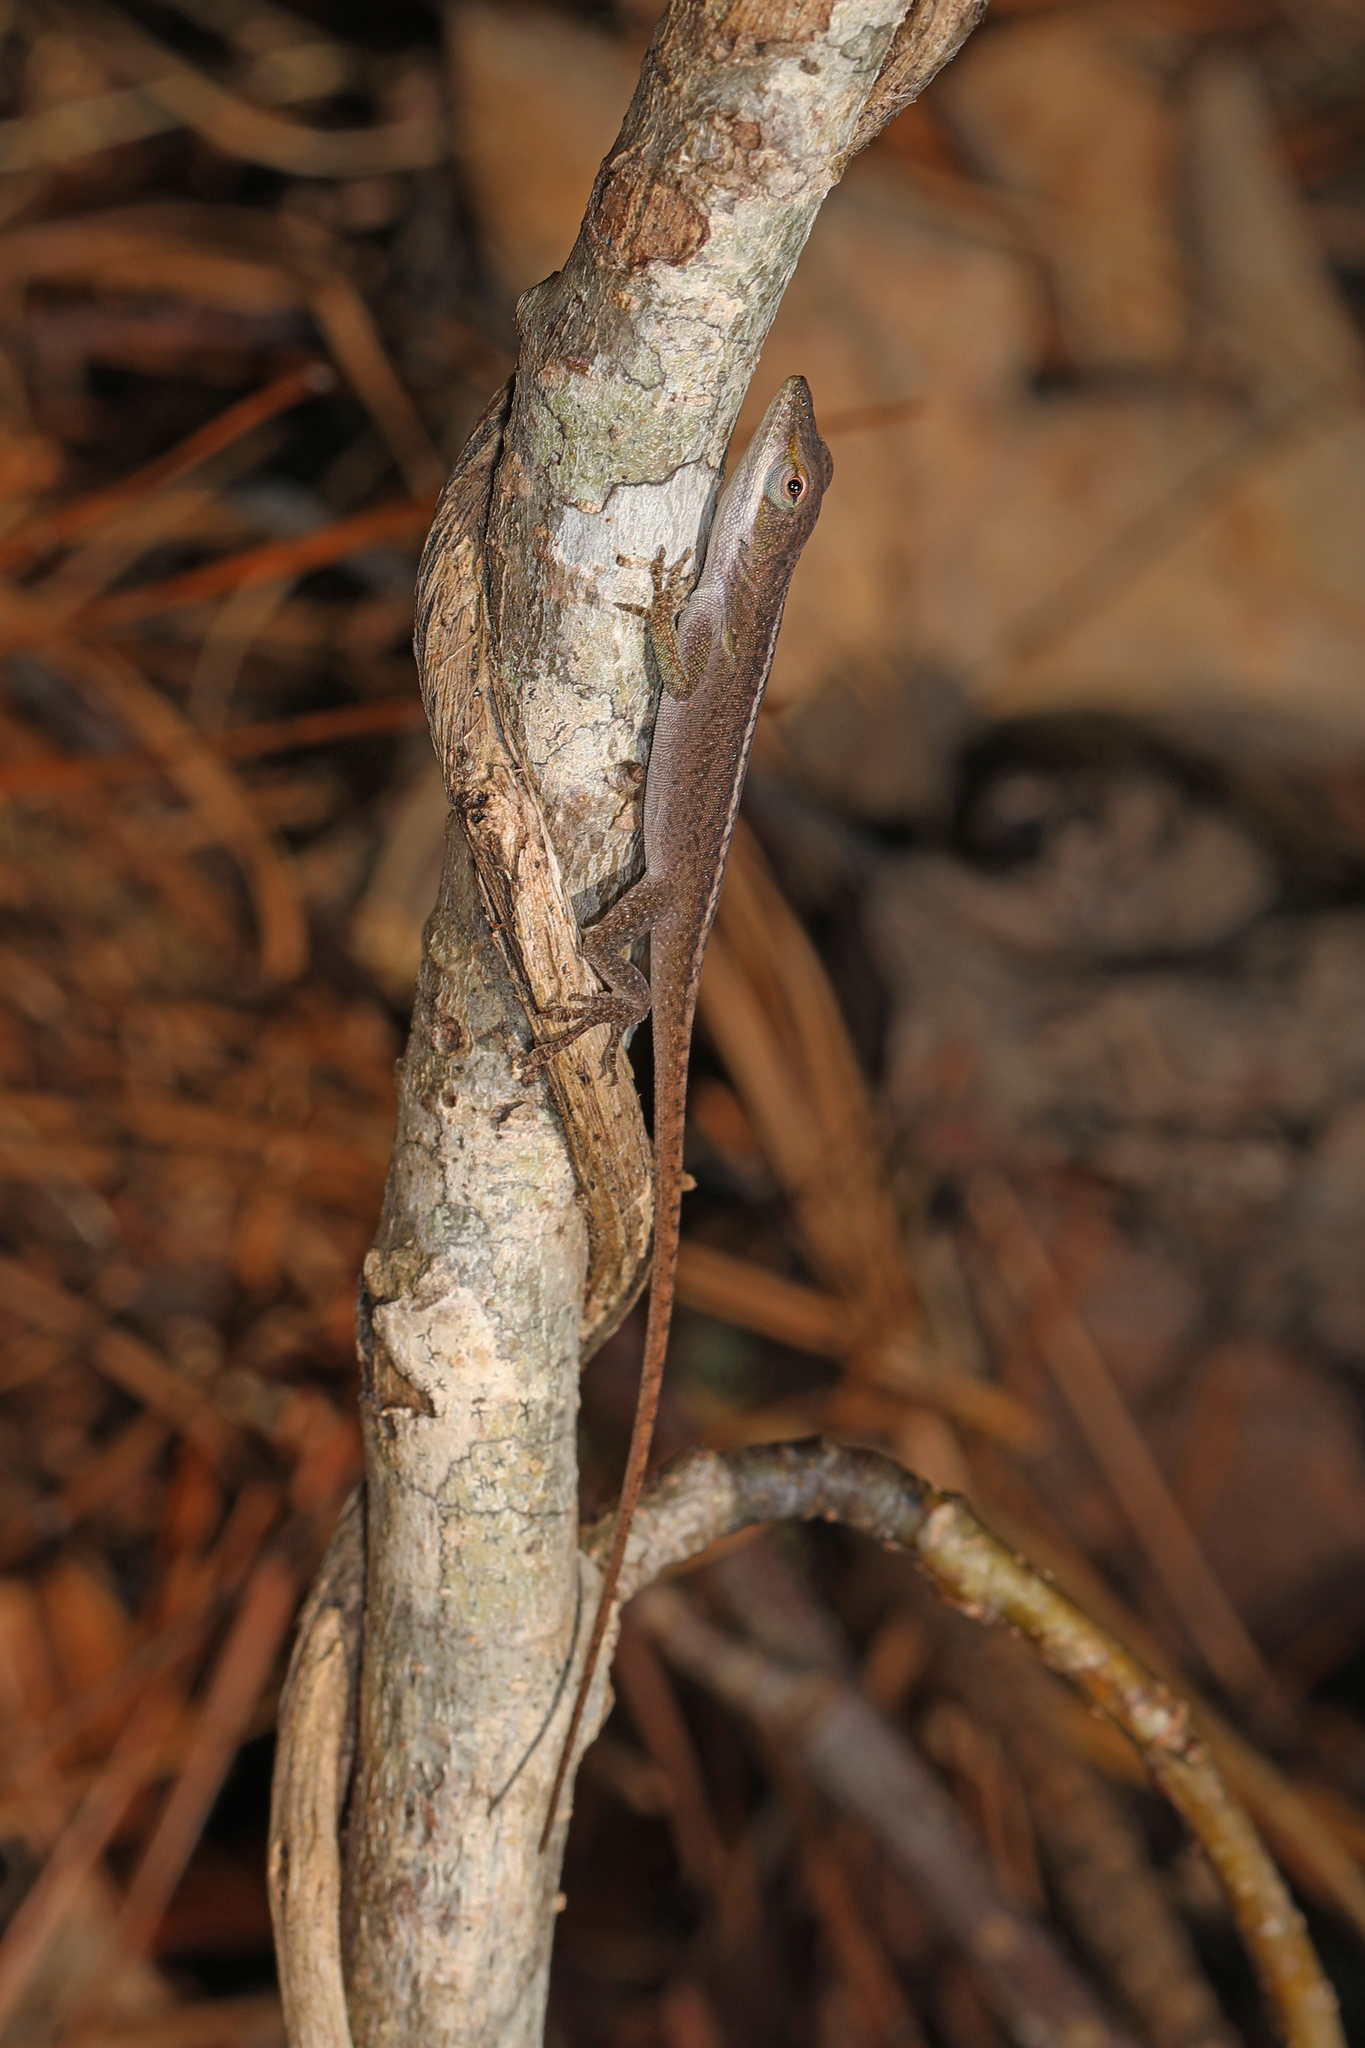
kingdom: Animalia
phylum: Chordata
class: Squamata
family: Dactyloidae
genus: Anolis
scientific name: Anolis carolinensis
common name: Green anole
